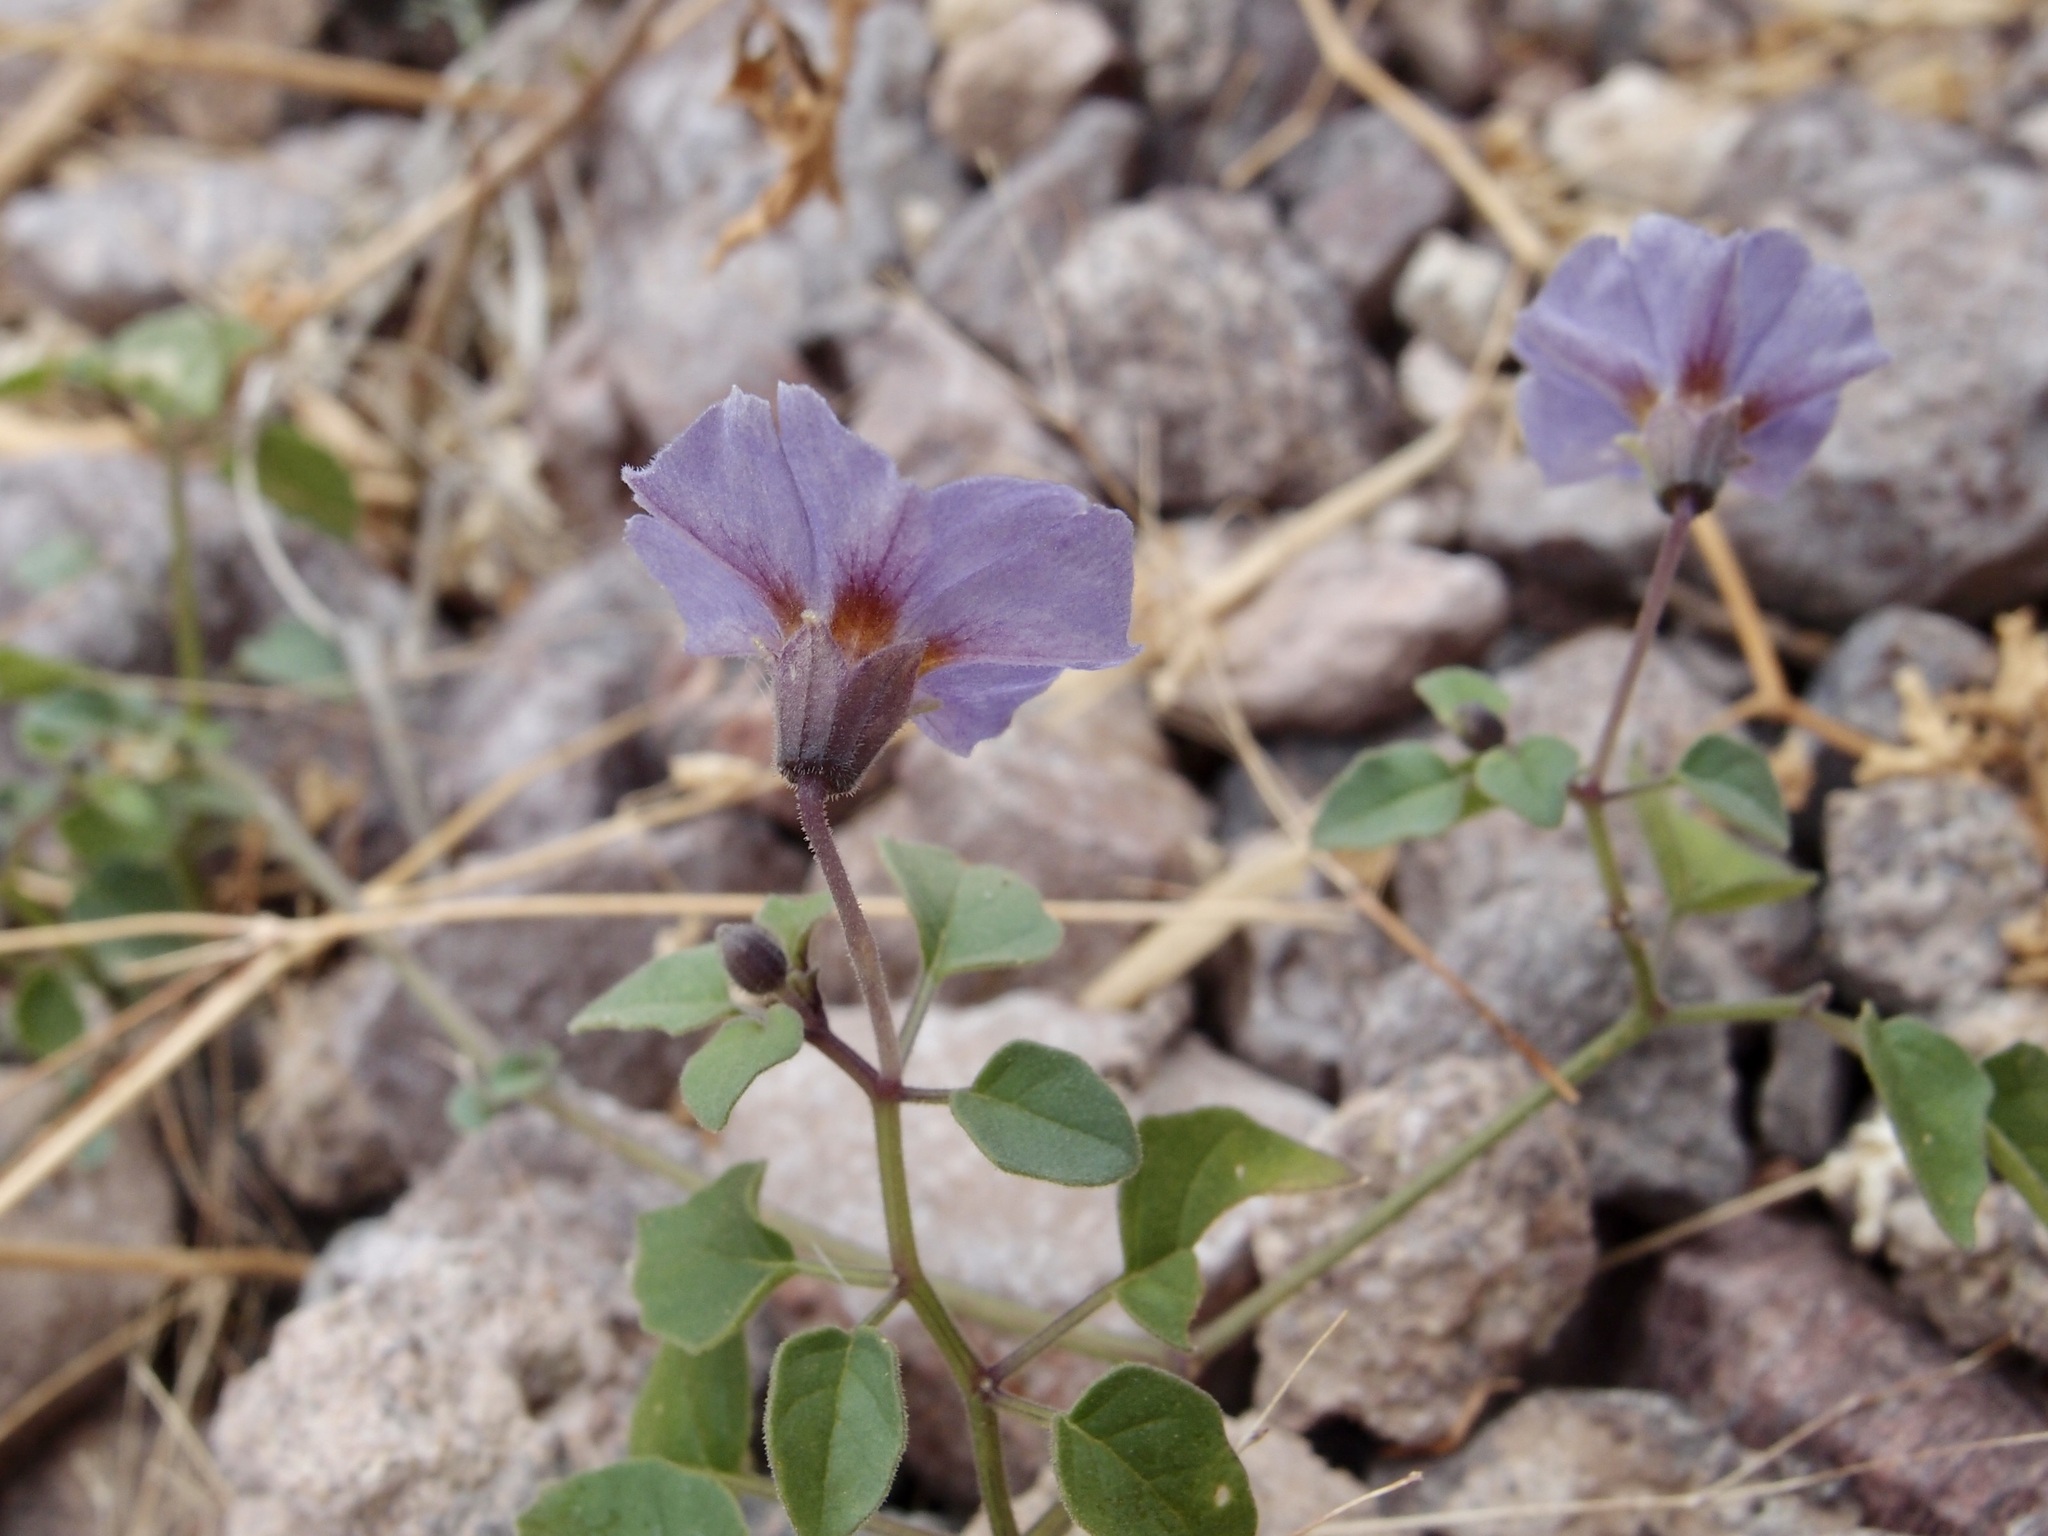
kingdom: Plantae
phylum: Tracheophyta
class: Magnoliopsida
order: Solanales
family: Solanaceae
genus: Physalis
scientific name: Physalis purpurea
